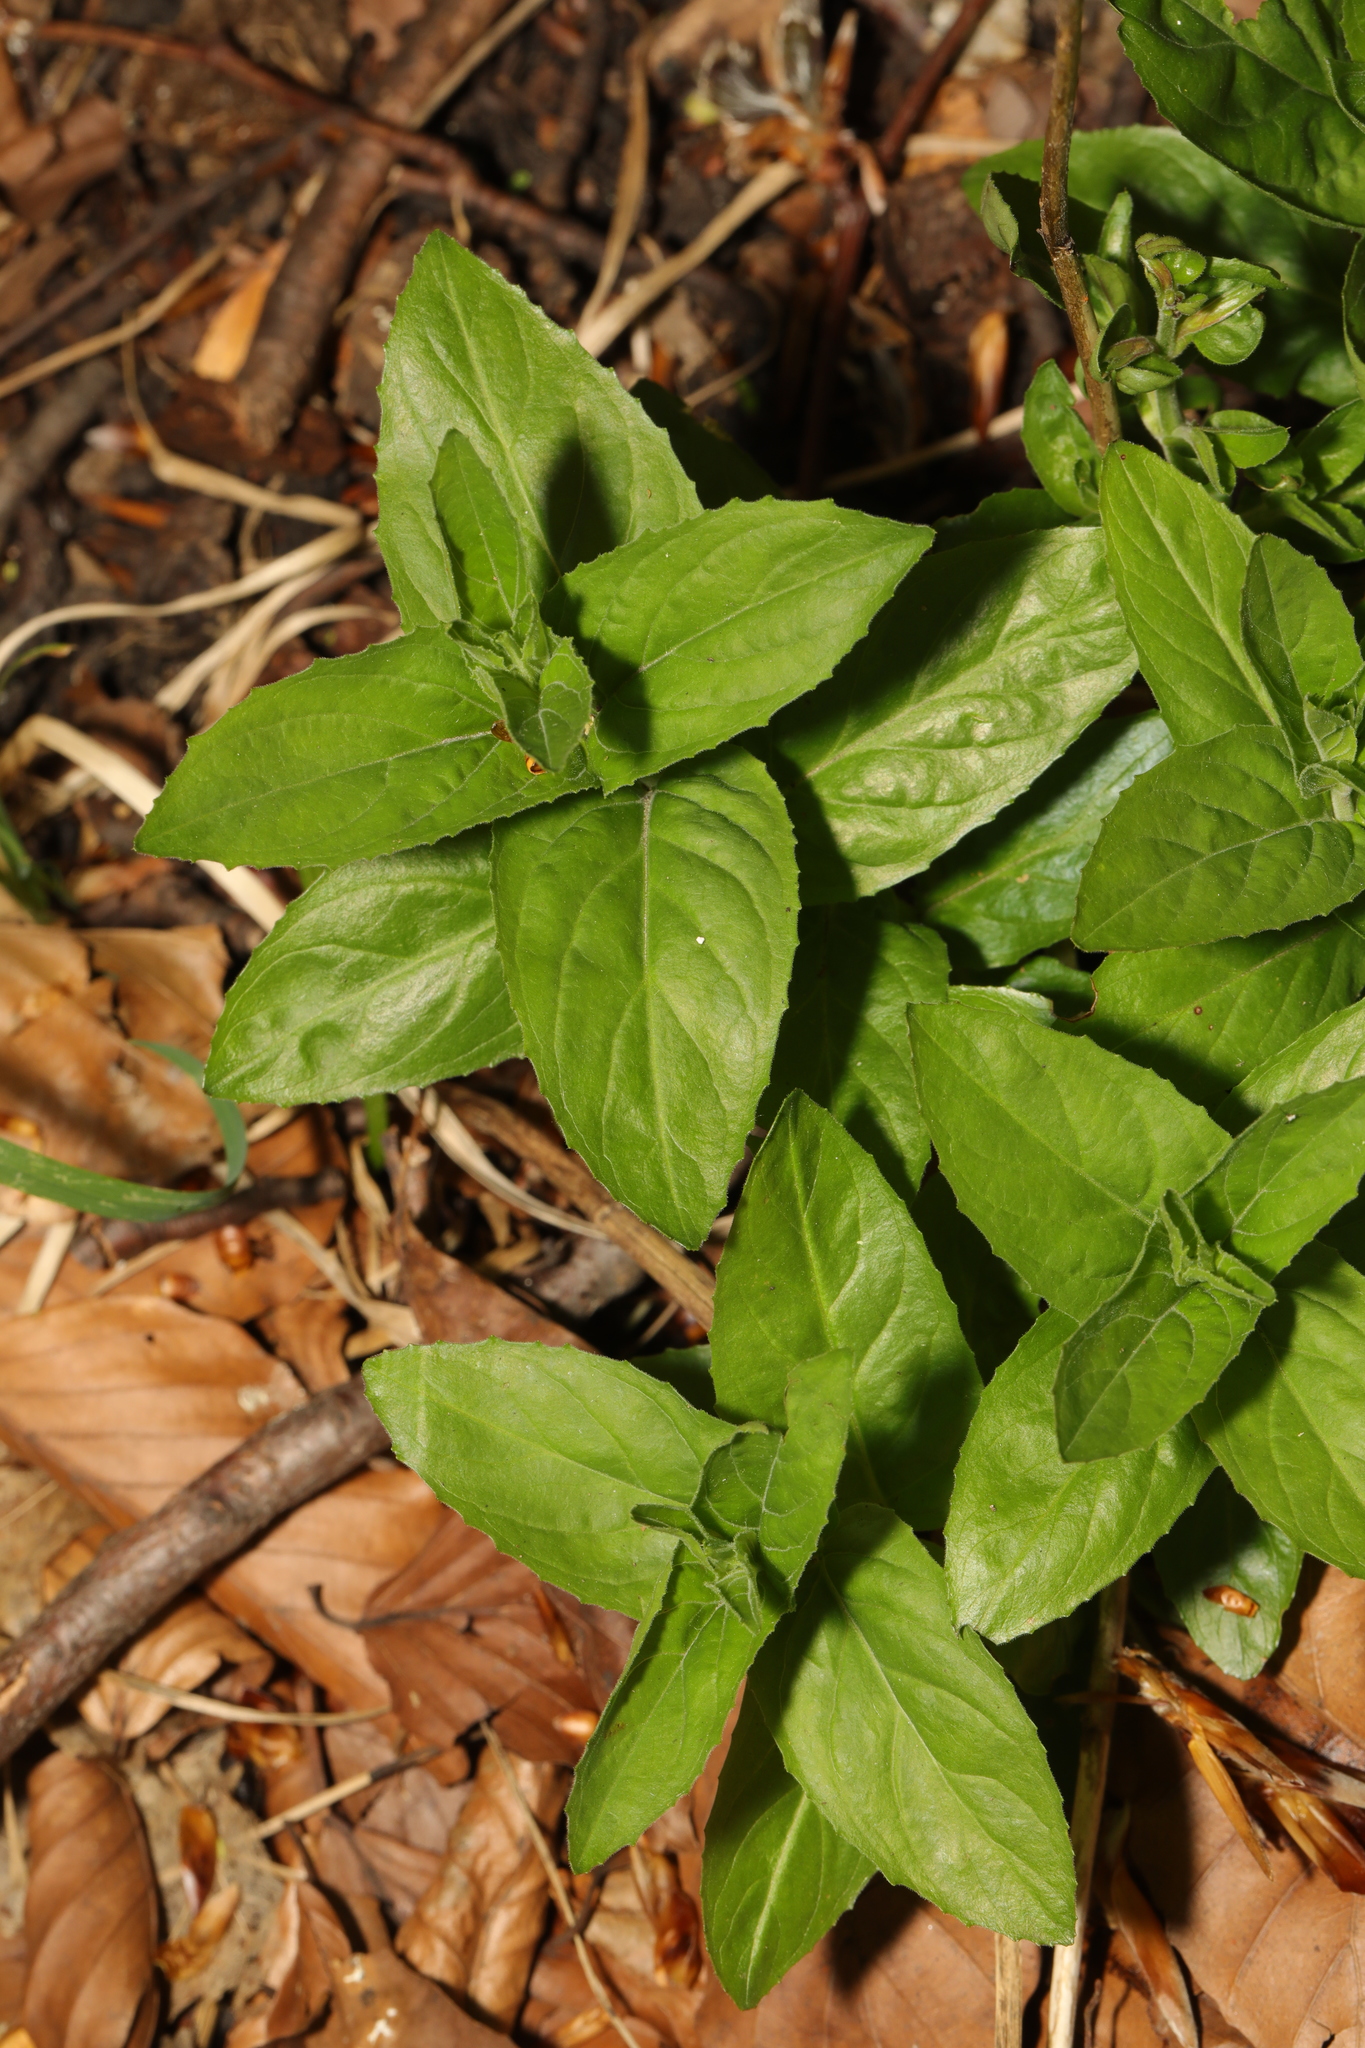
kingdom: Plantae
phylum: Tracheophyta
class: Magnoliopsida
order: Myrtales
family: Onagraceae
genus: Epilobium
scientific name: Epilobium montanum
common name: Broad-leaved willowherb
